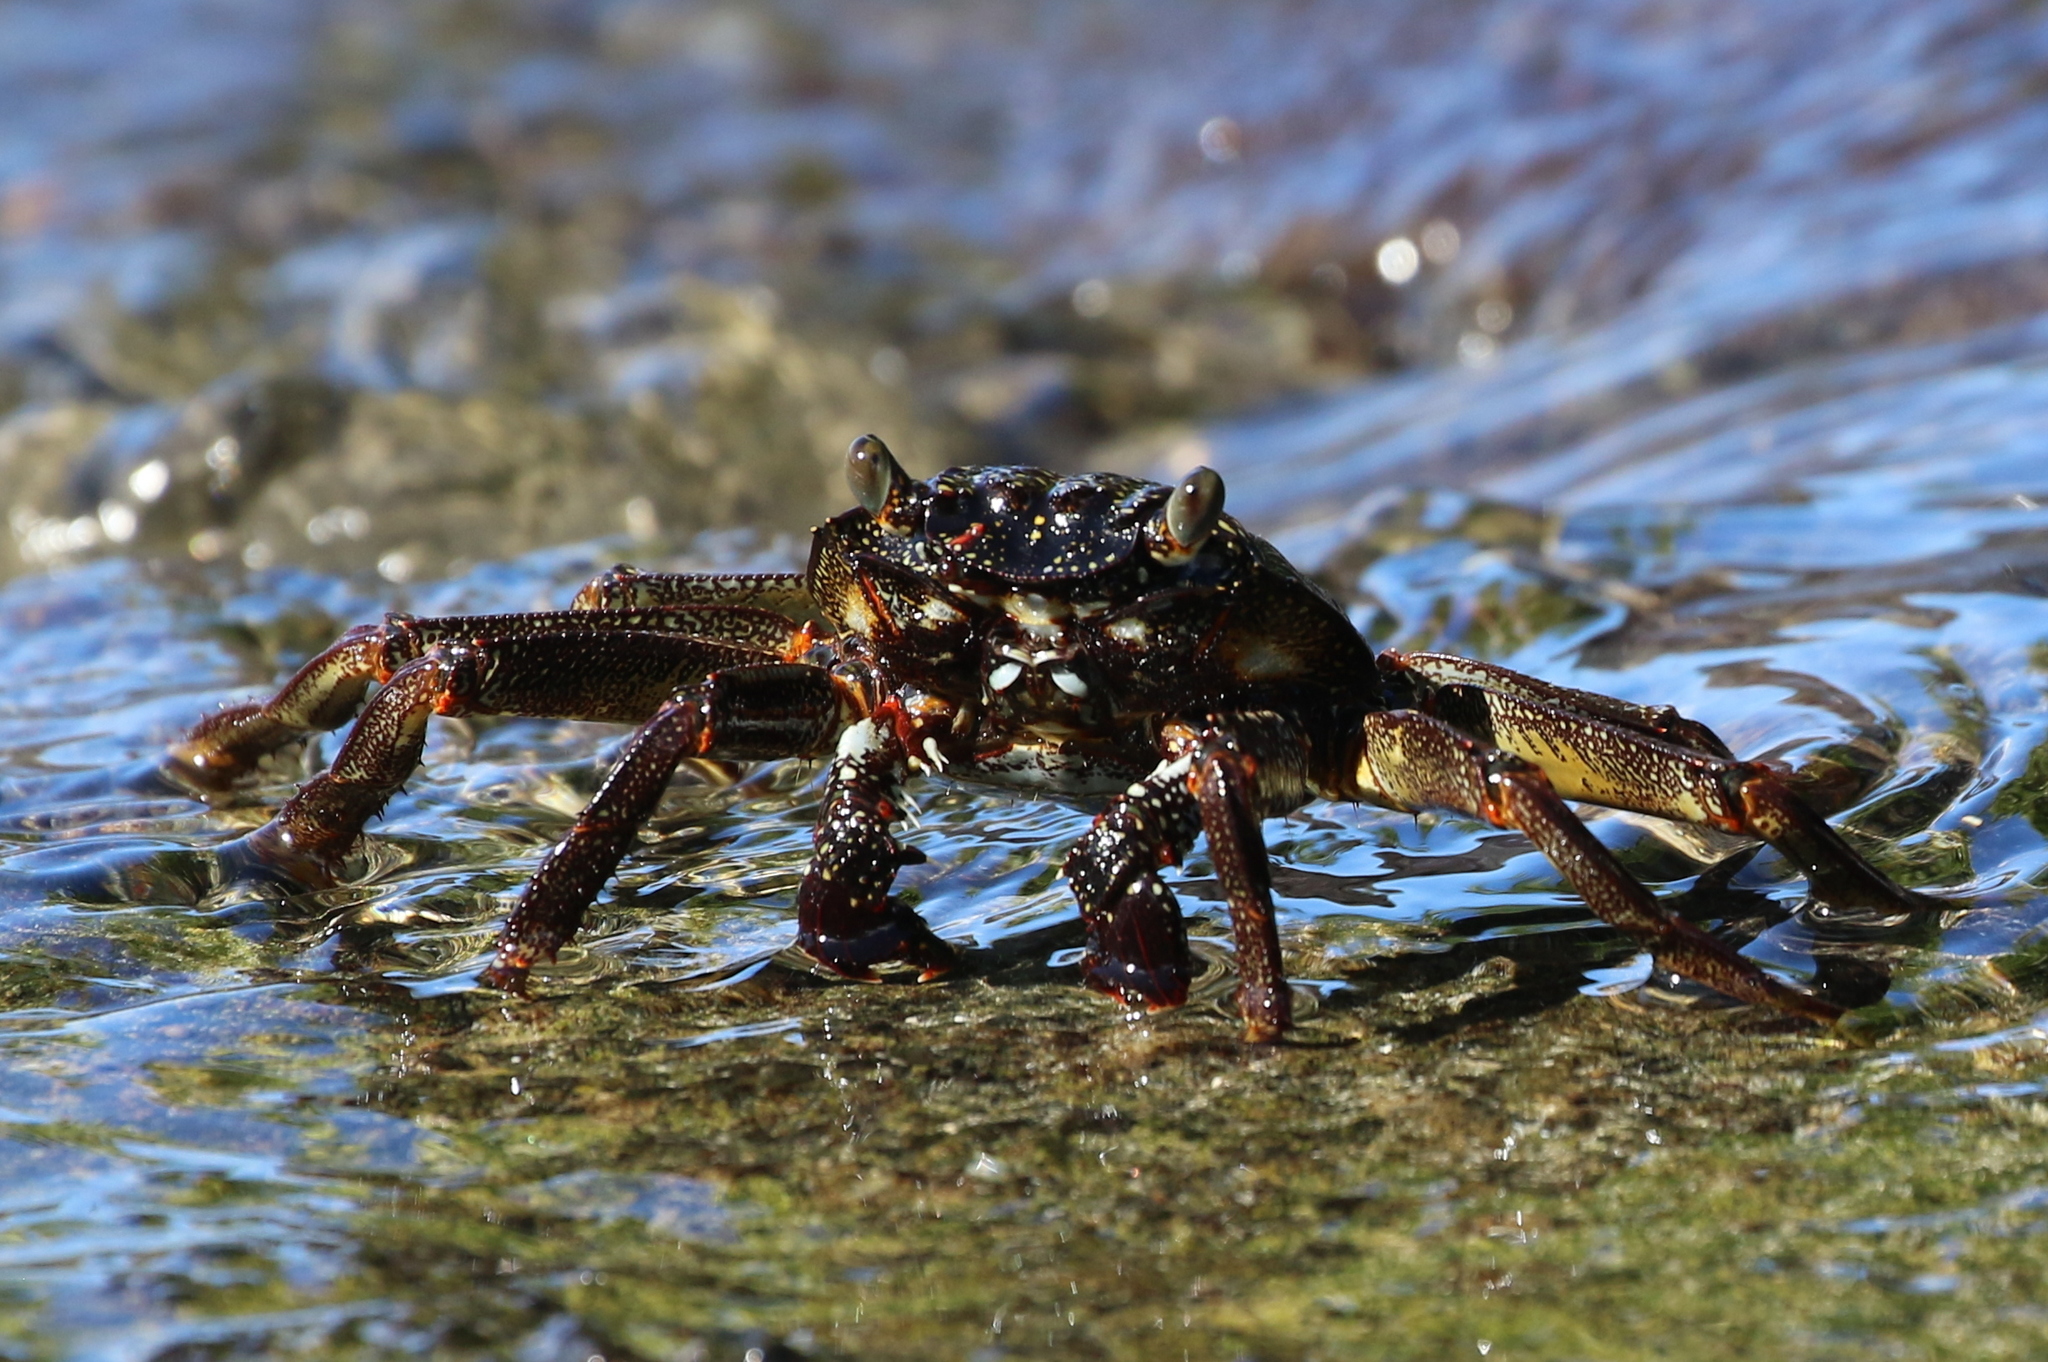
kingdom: Animalia
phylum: Arthropoda
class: Malacostraca
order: Decapoda
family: Grapsidae
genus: Grapsus
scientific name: Grapsus tenuicrustatus
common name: Natal lightfoot crab
